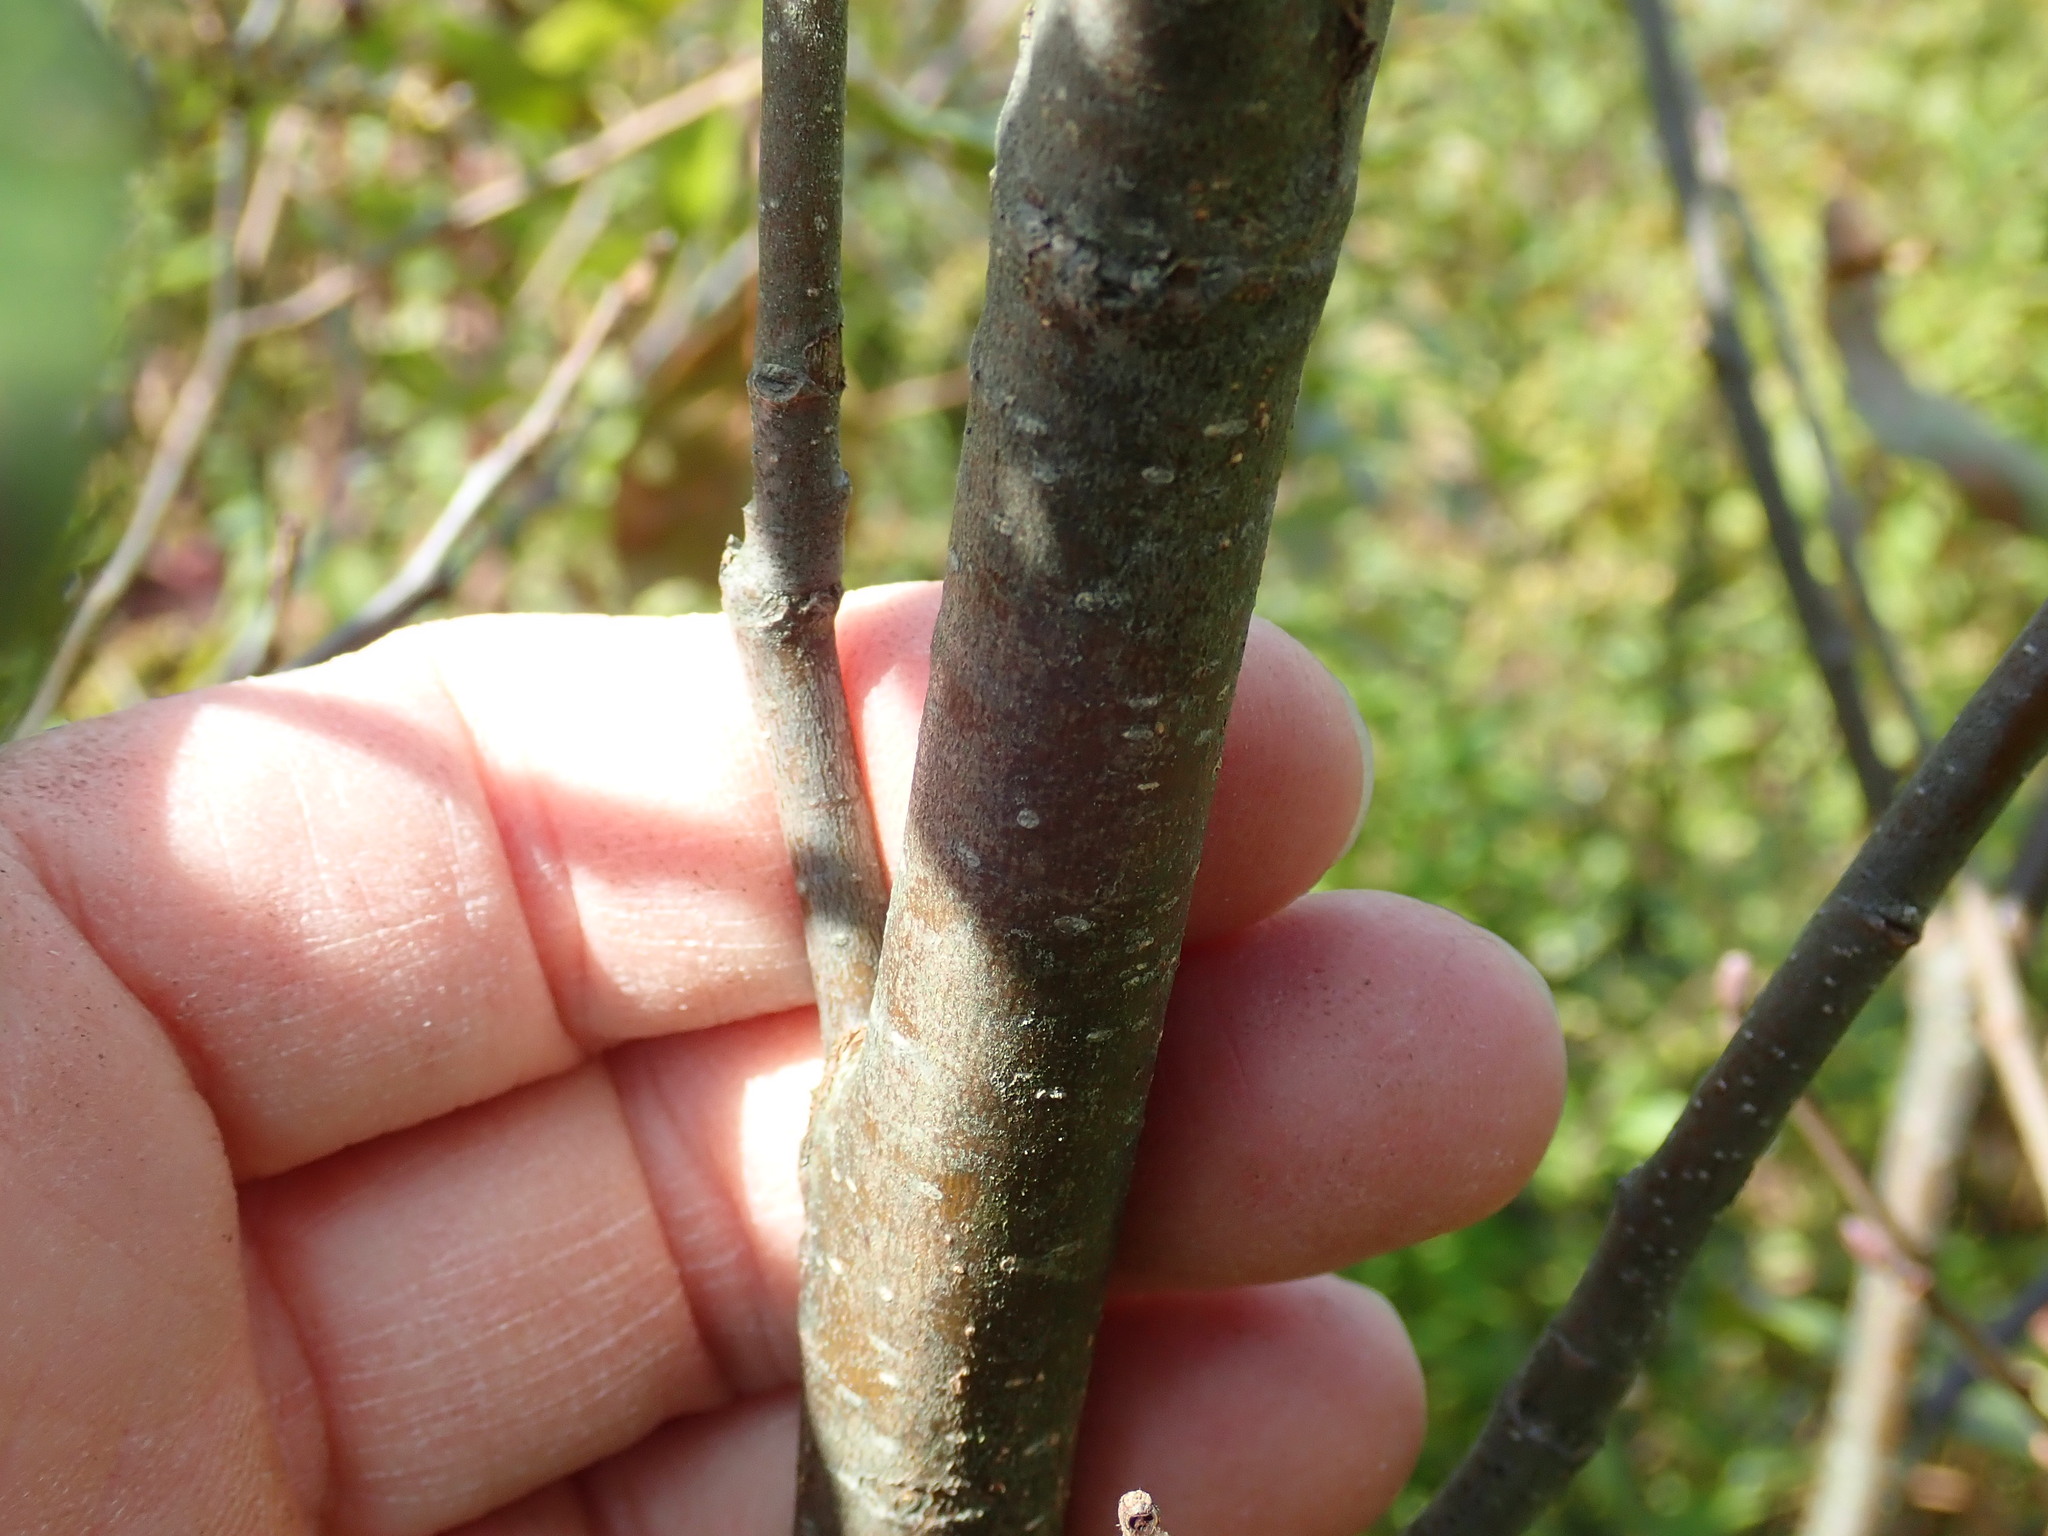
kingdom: Plantae
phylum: Tracheophyta
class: Magnoliopsida
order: Fagales
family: Betulaceae
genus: Alnus
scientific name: Alnus incana
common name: Grey alder
